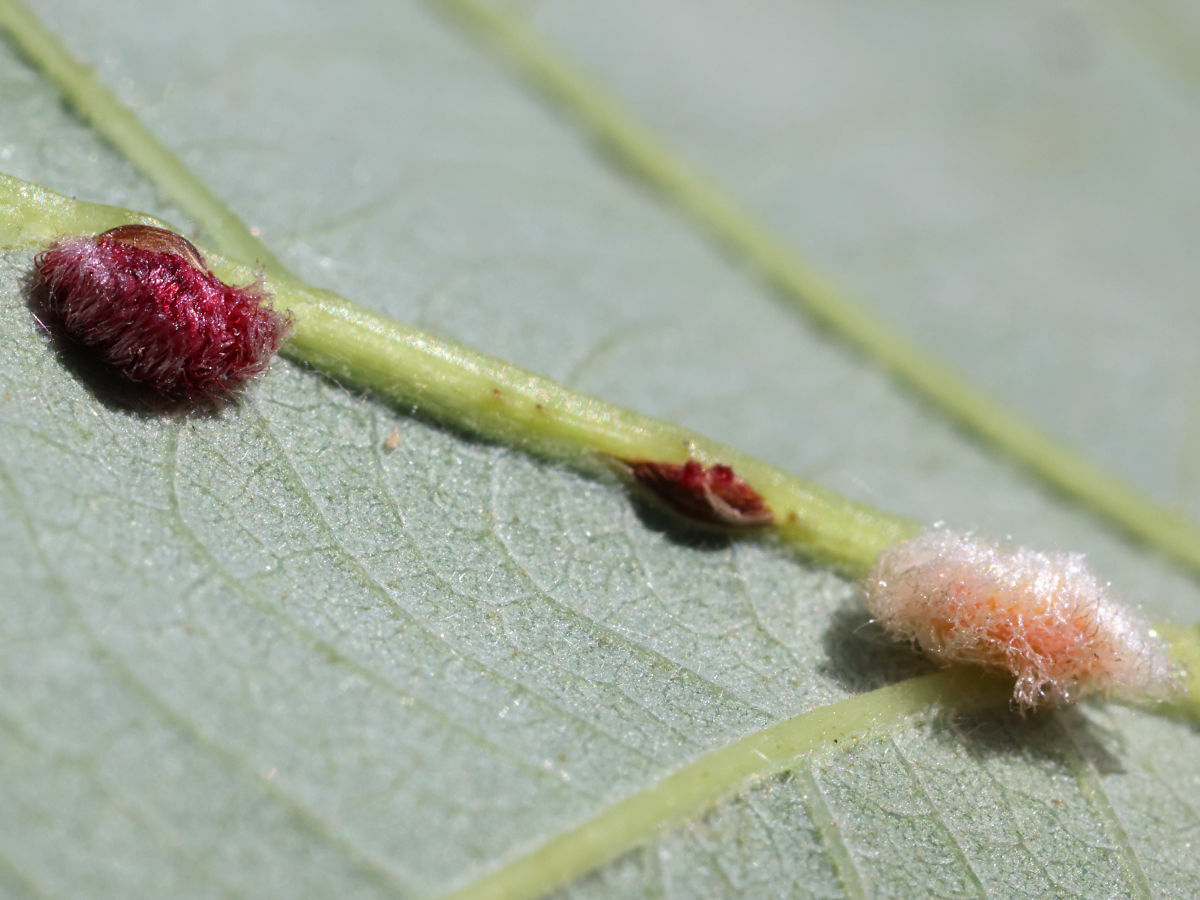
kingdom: Animalia
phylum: Arthropoda
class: Insecta
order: Hymenoptera
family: Cynipidae
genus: Andricus
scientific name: Andricus Druon ignotum
